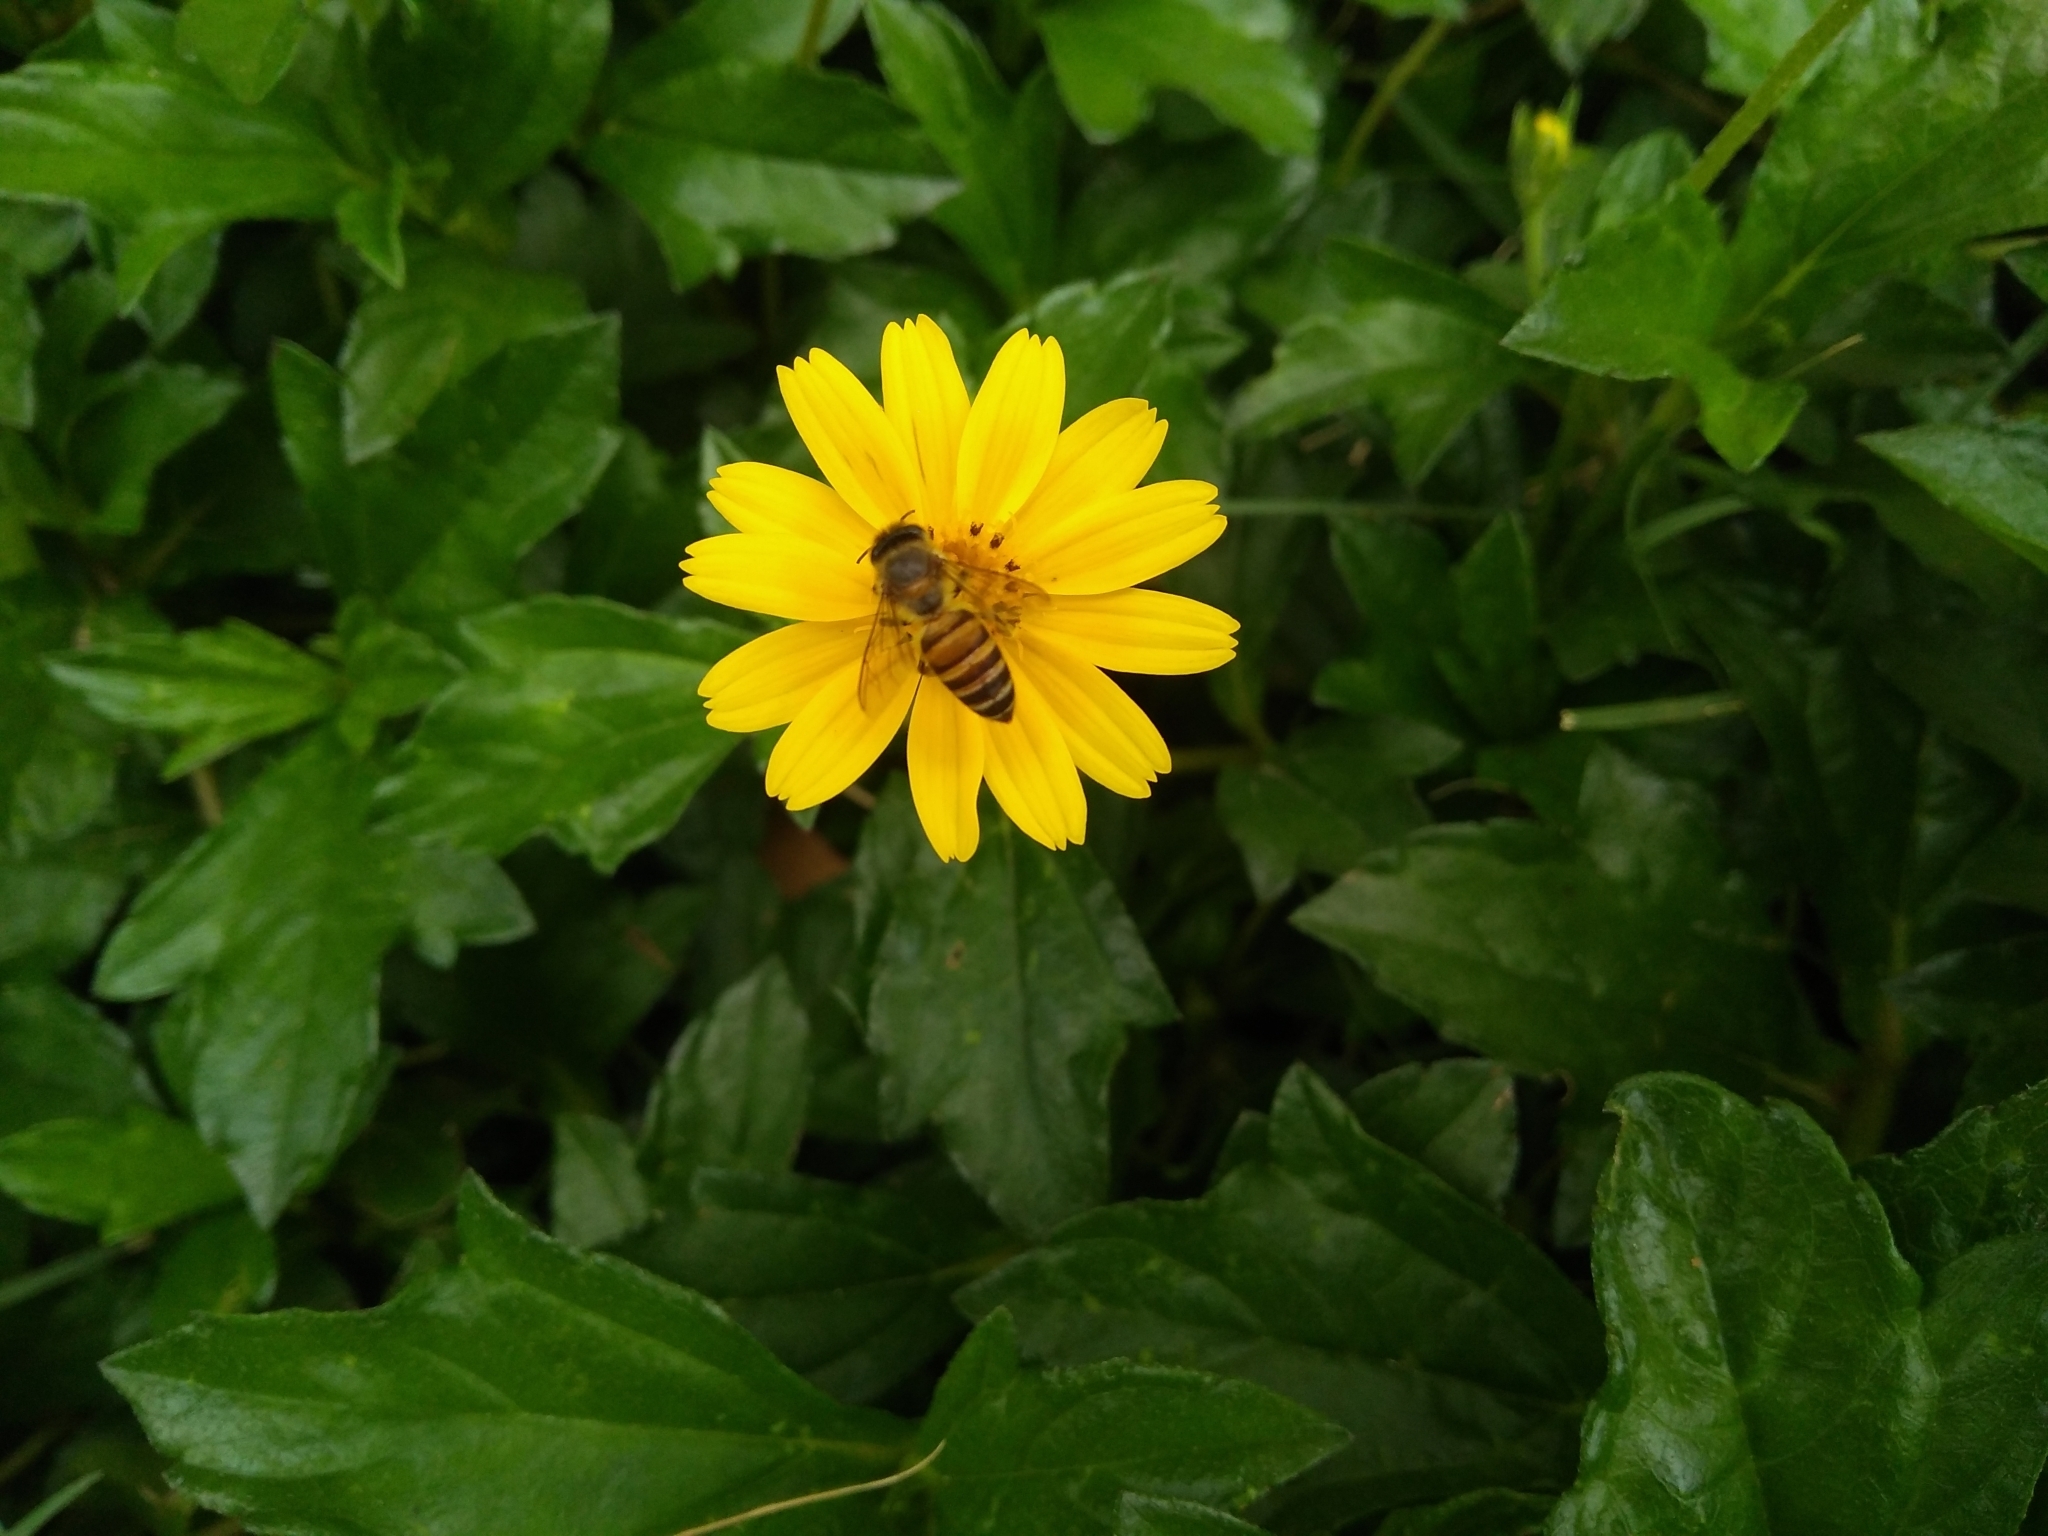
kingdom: Animalia
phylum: Arthropoda
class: Insecta
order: Hymenoptera
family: Apidae
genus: Apis
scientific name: Apis cerana
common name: Honey bee
